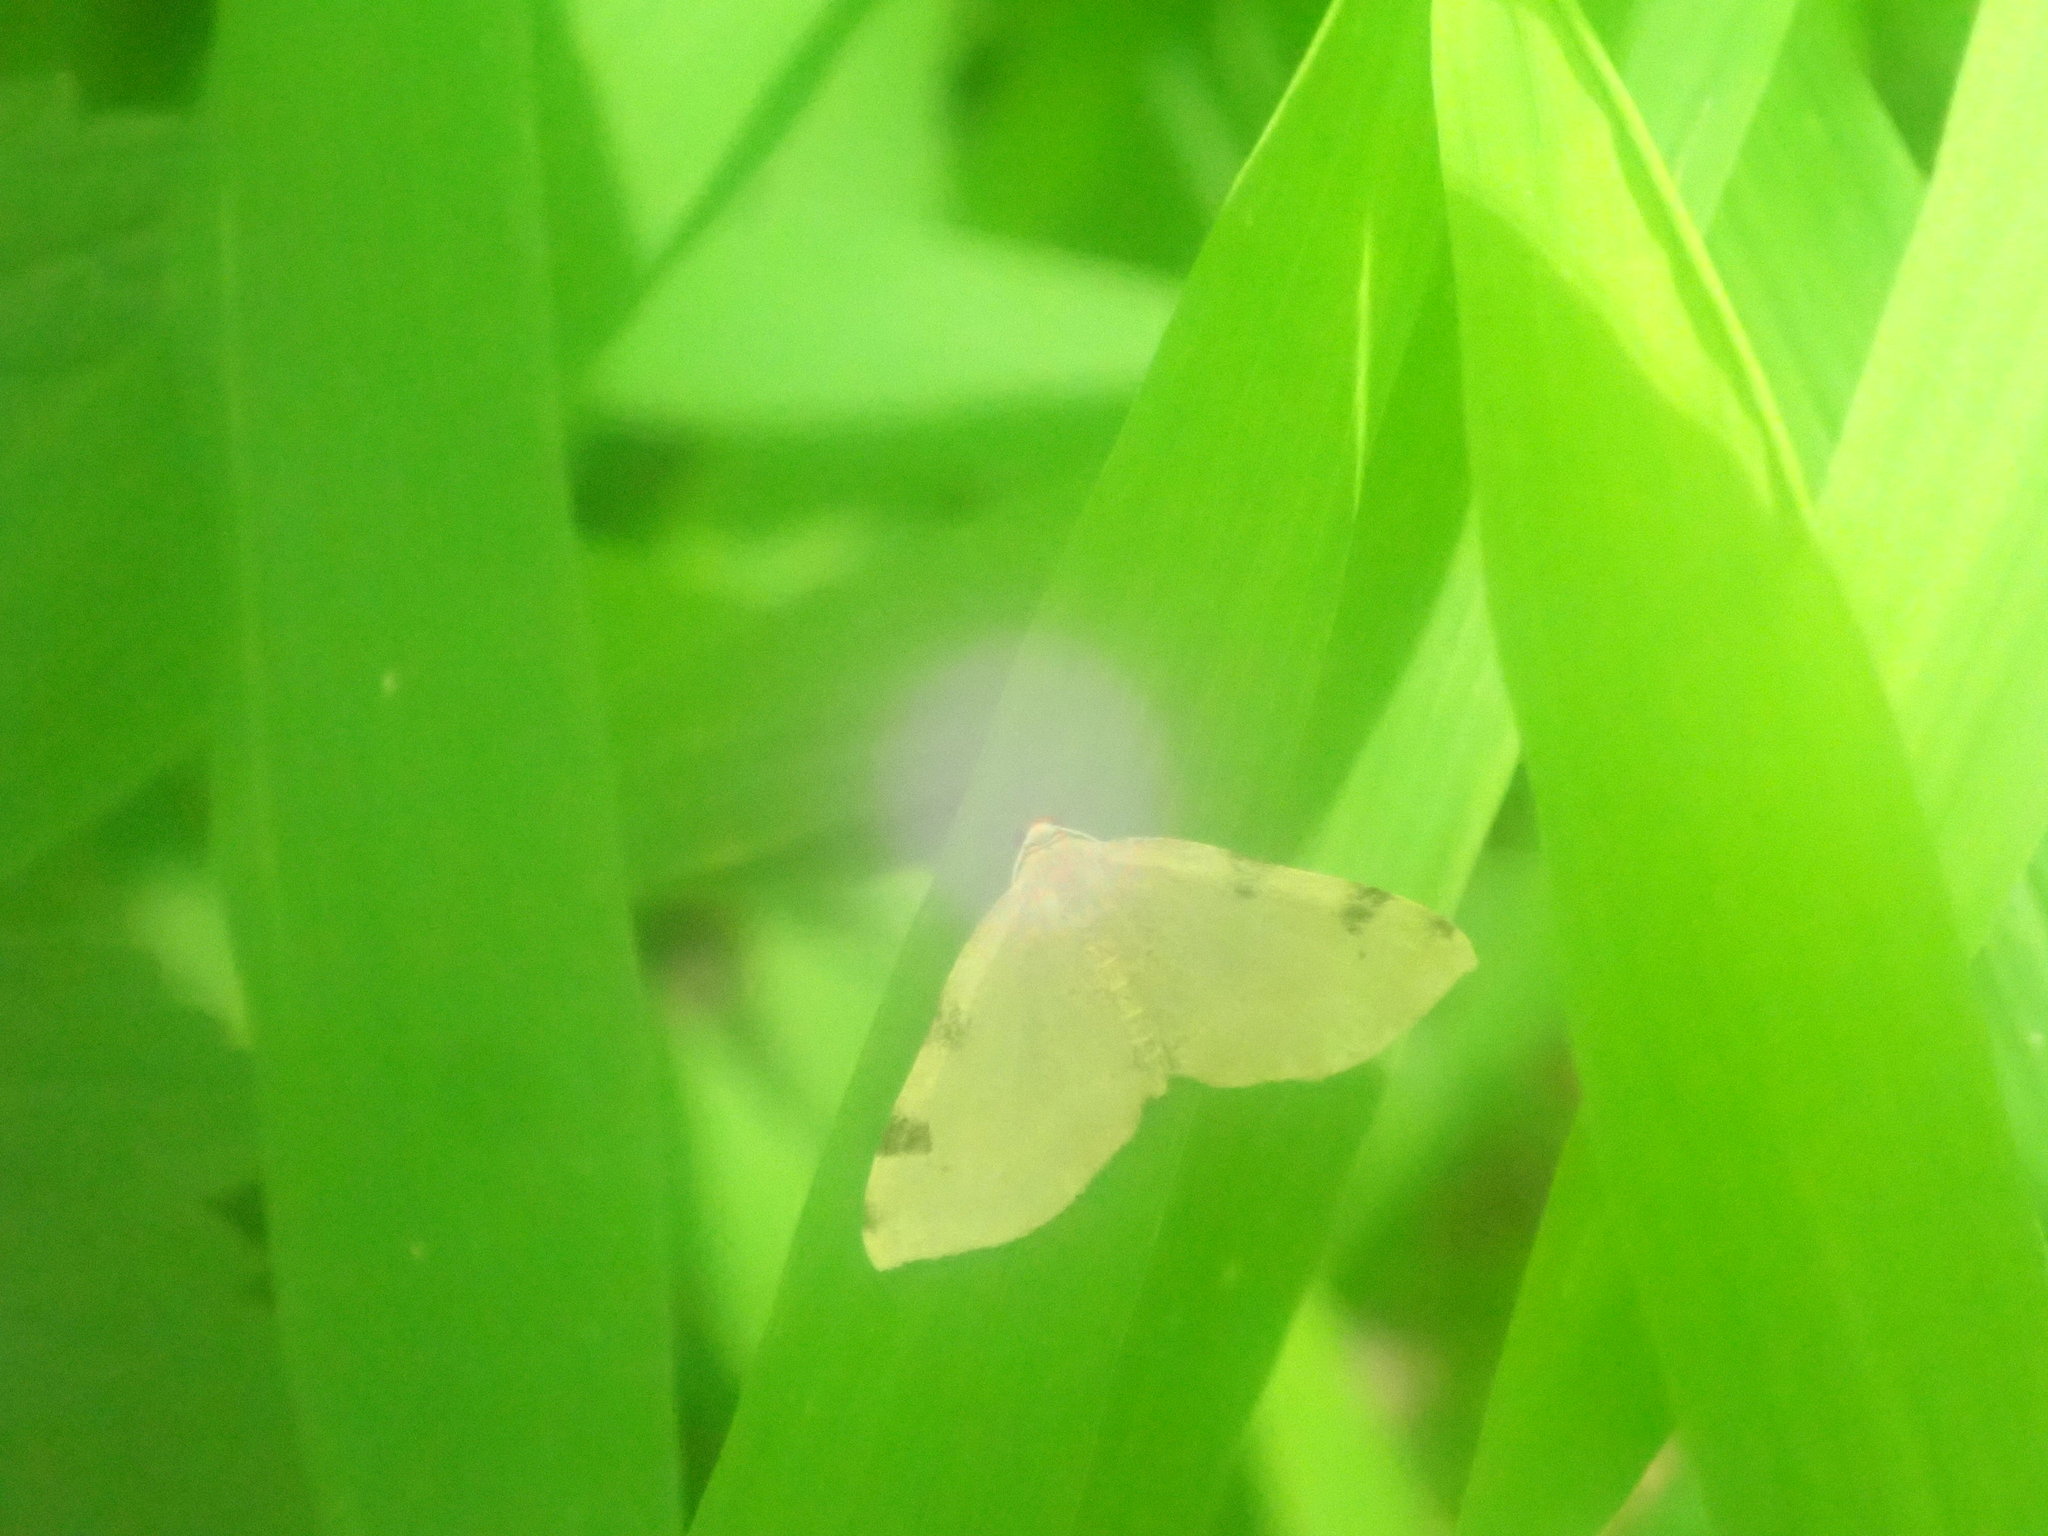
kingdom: Animalia
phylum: Arthropoda
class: Insecta
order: Lepidoptera
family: Geometridae
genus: Heterophleps
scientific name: Heterophleps triguttaria
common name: Three-spotted fillip
